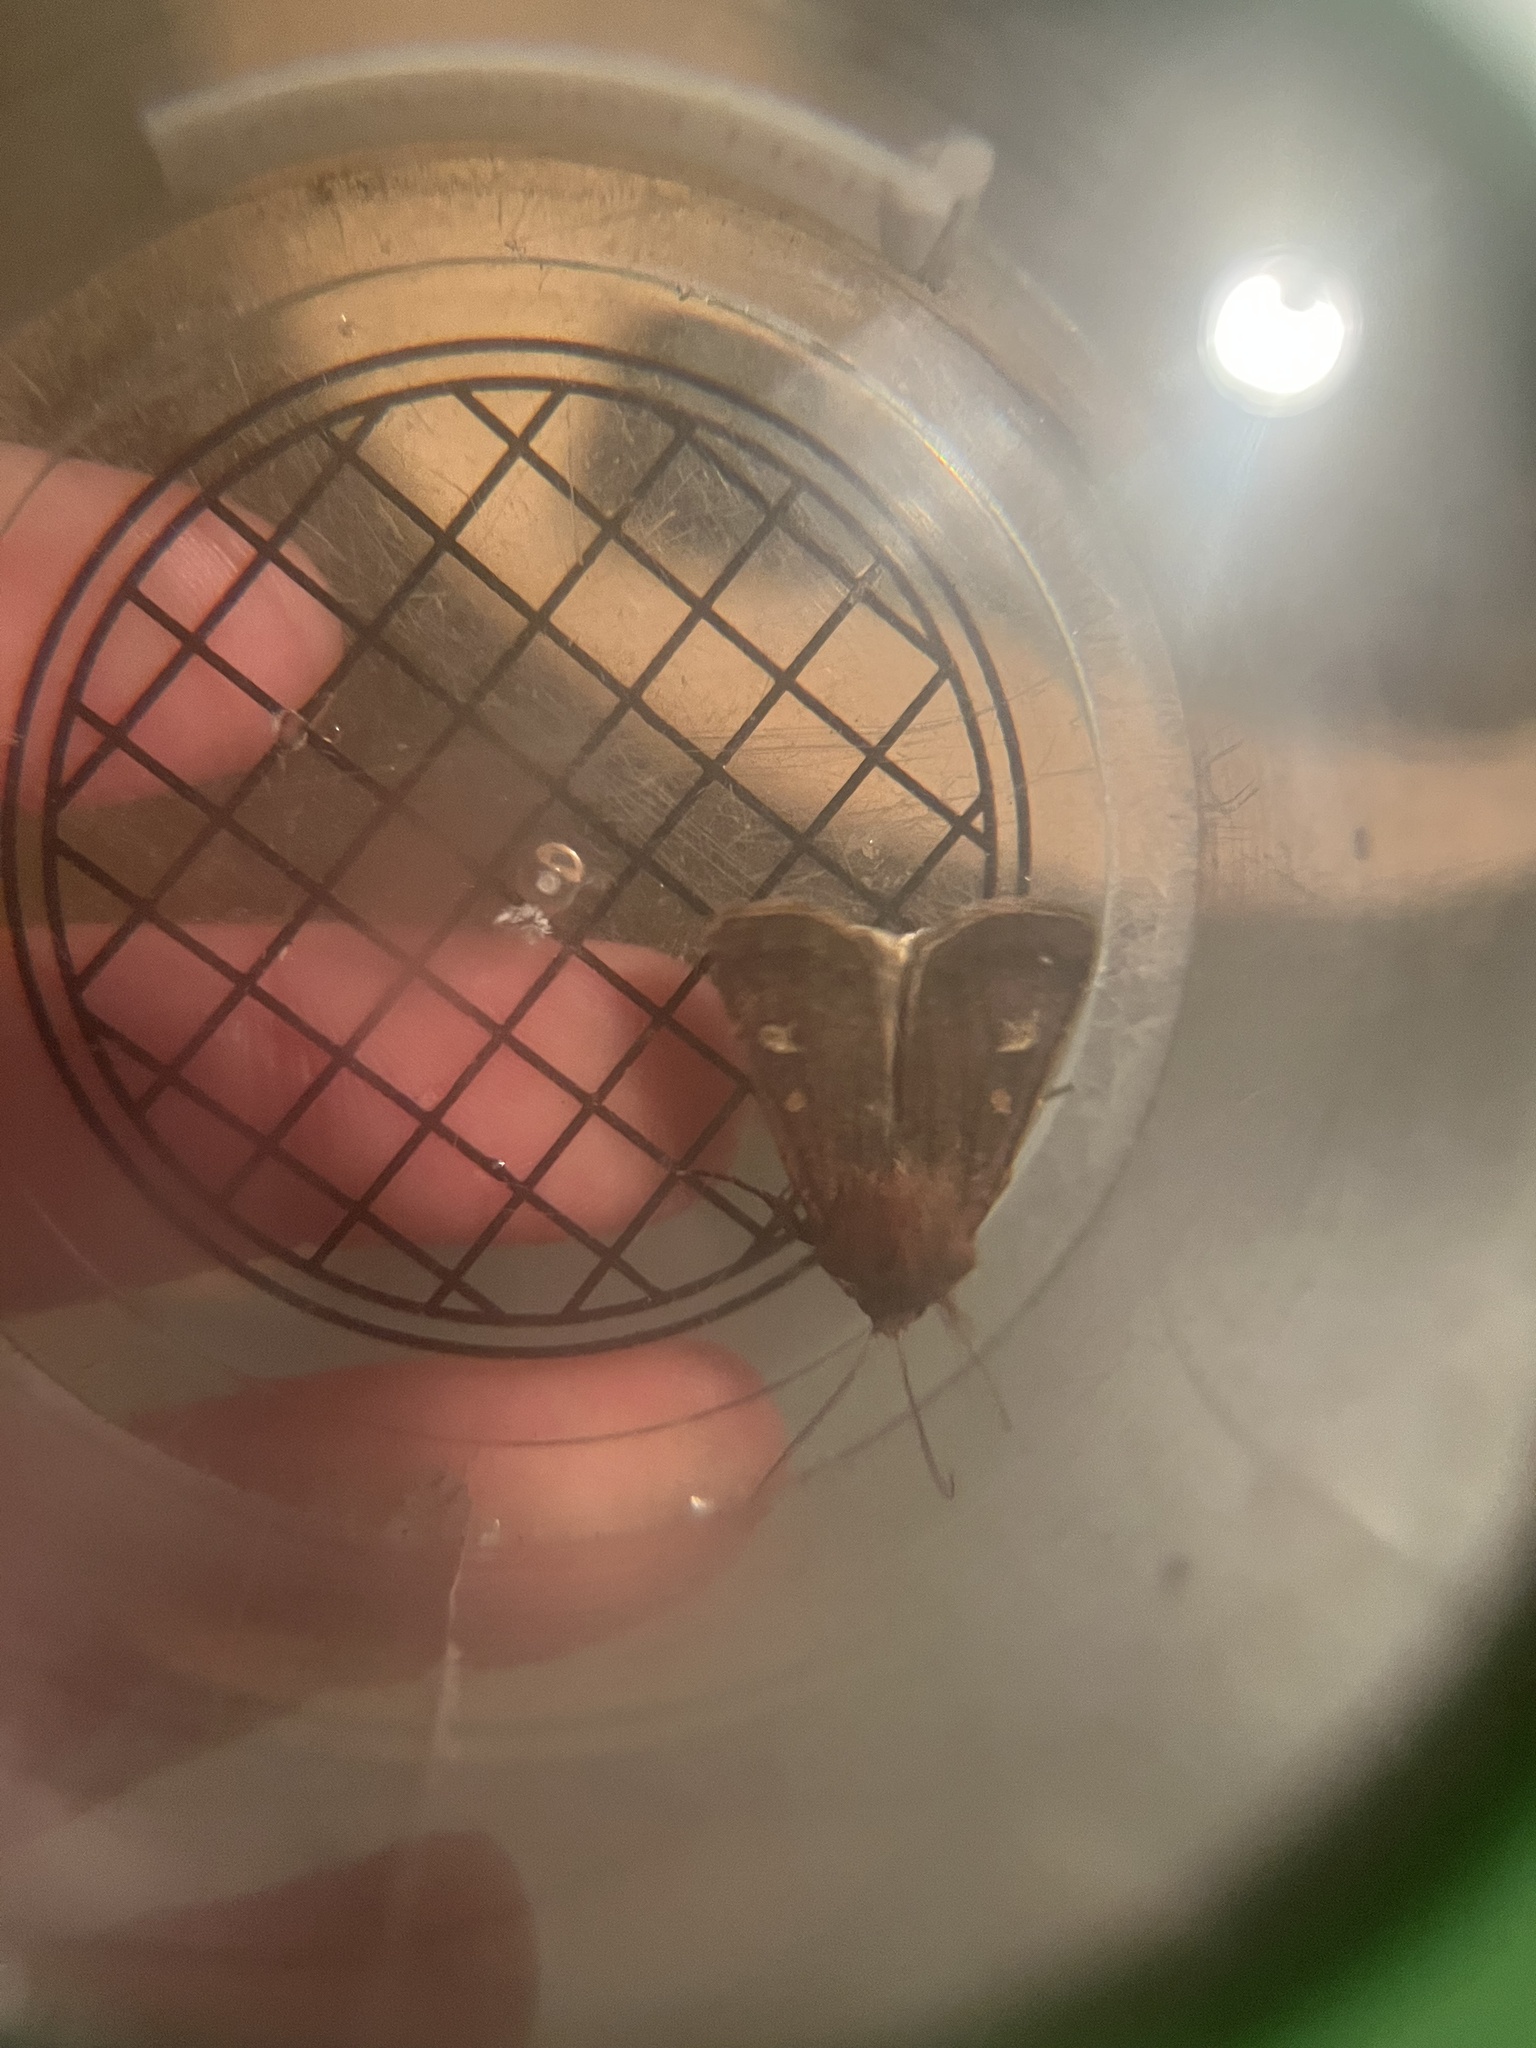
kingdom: Animalia
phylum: Arthropoda
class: Insecta
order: Lepidoptera
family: Noctuidae
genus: Xestia
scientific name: Xestia xanthographa
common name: Square-spot rustic
